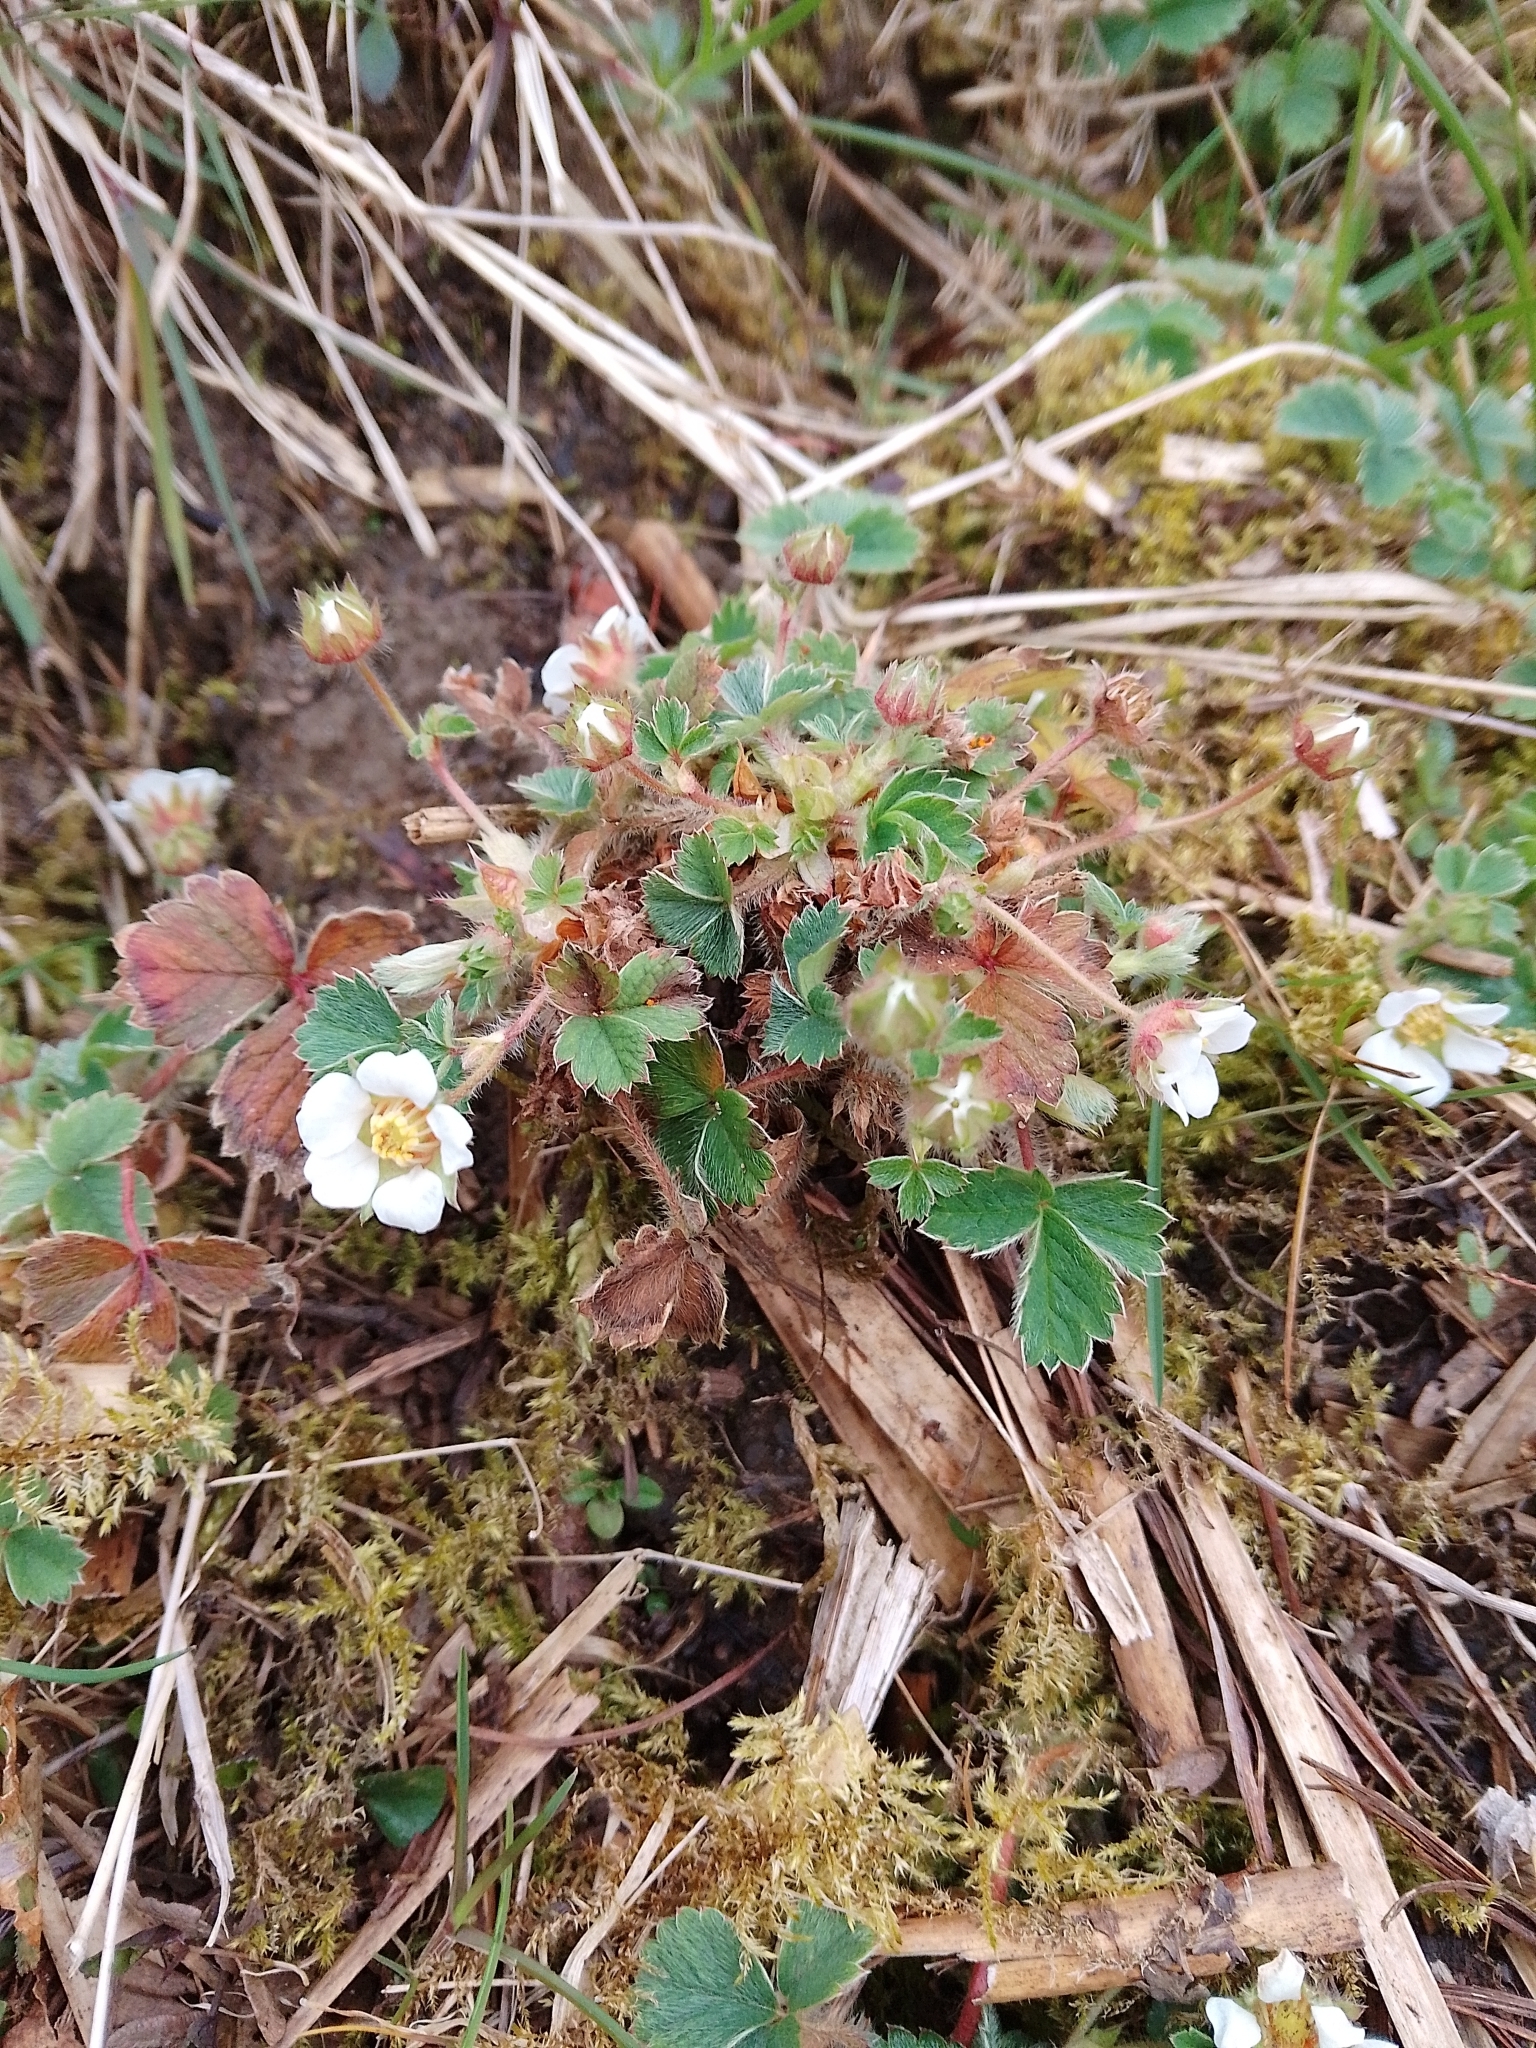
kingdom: Plantae
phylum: Tracheophyta
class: Magnoliopsida
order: Rosales
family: Rosaceae
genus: Potentilla
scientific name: Potentilla sterilis
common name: Barren strawberry
